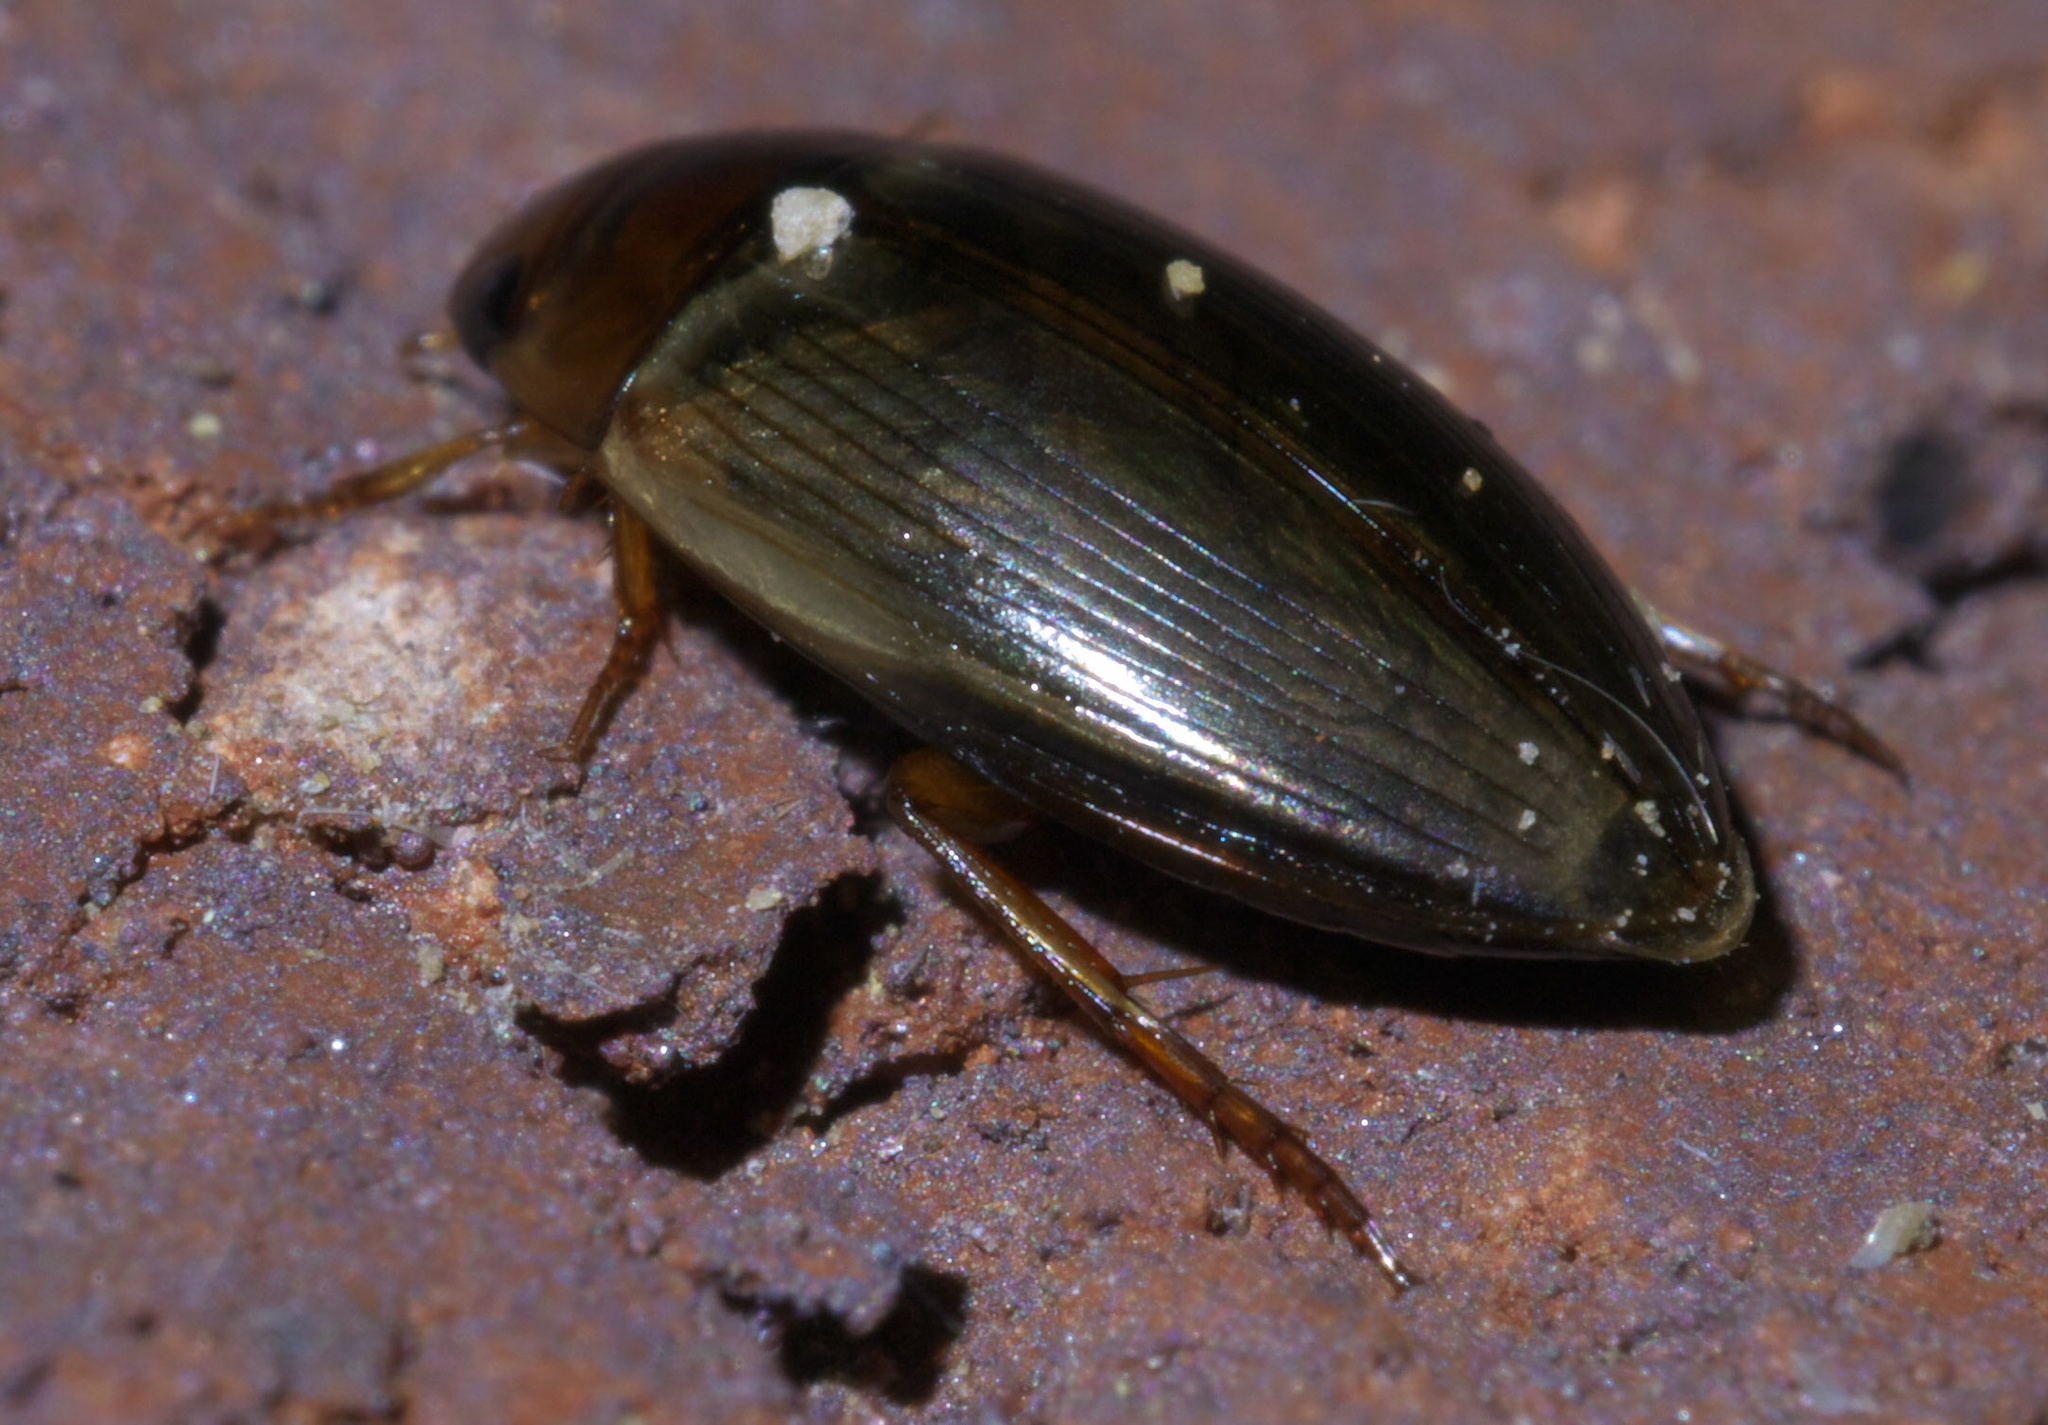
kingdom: Animalia
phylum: Arthropoda
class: Insecta
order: Coleoptera
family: Dytiscidae
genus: Copelatus
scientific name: Copelatus chevrolati
